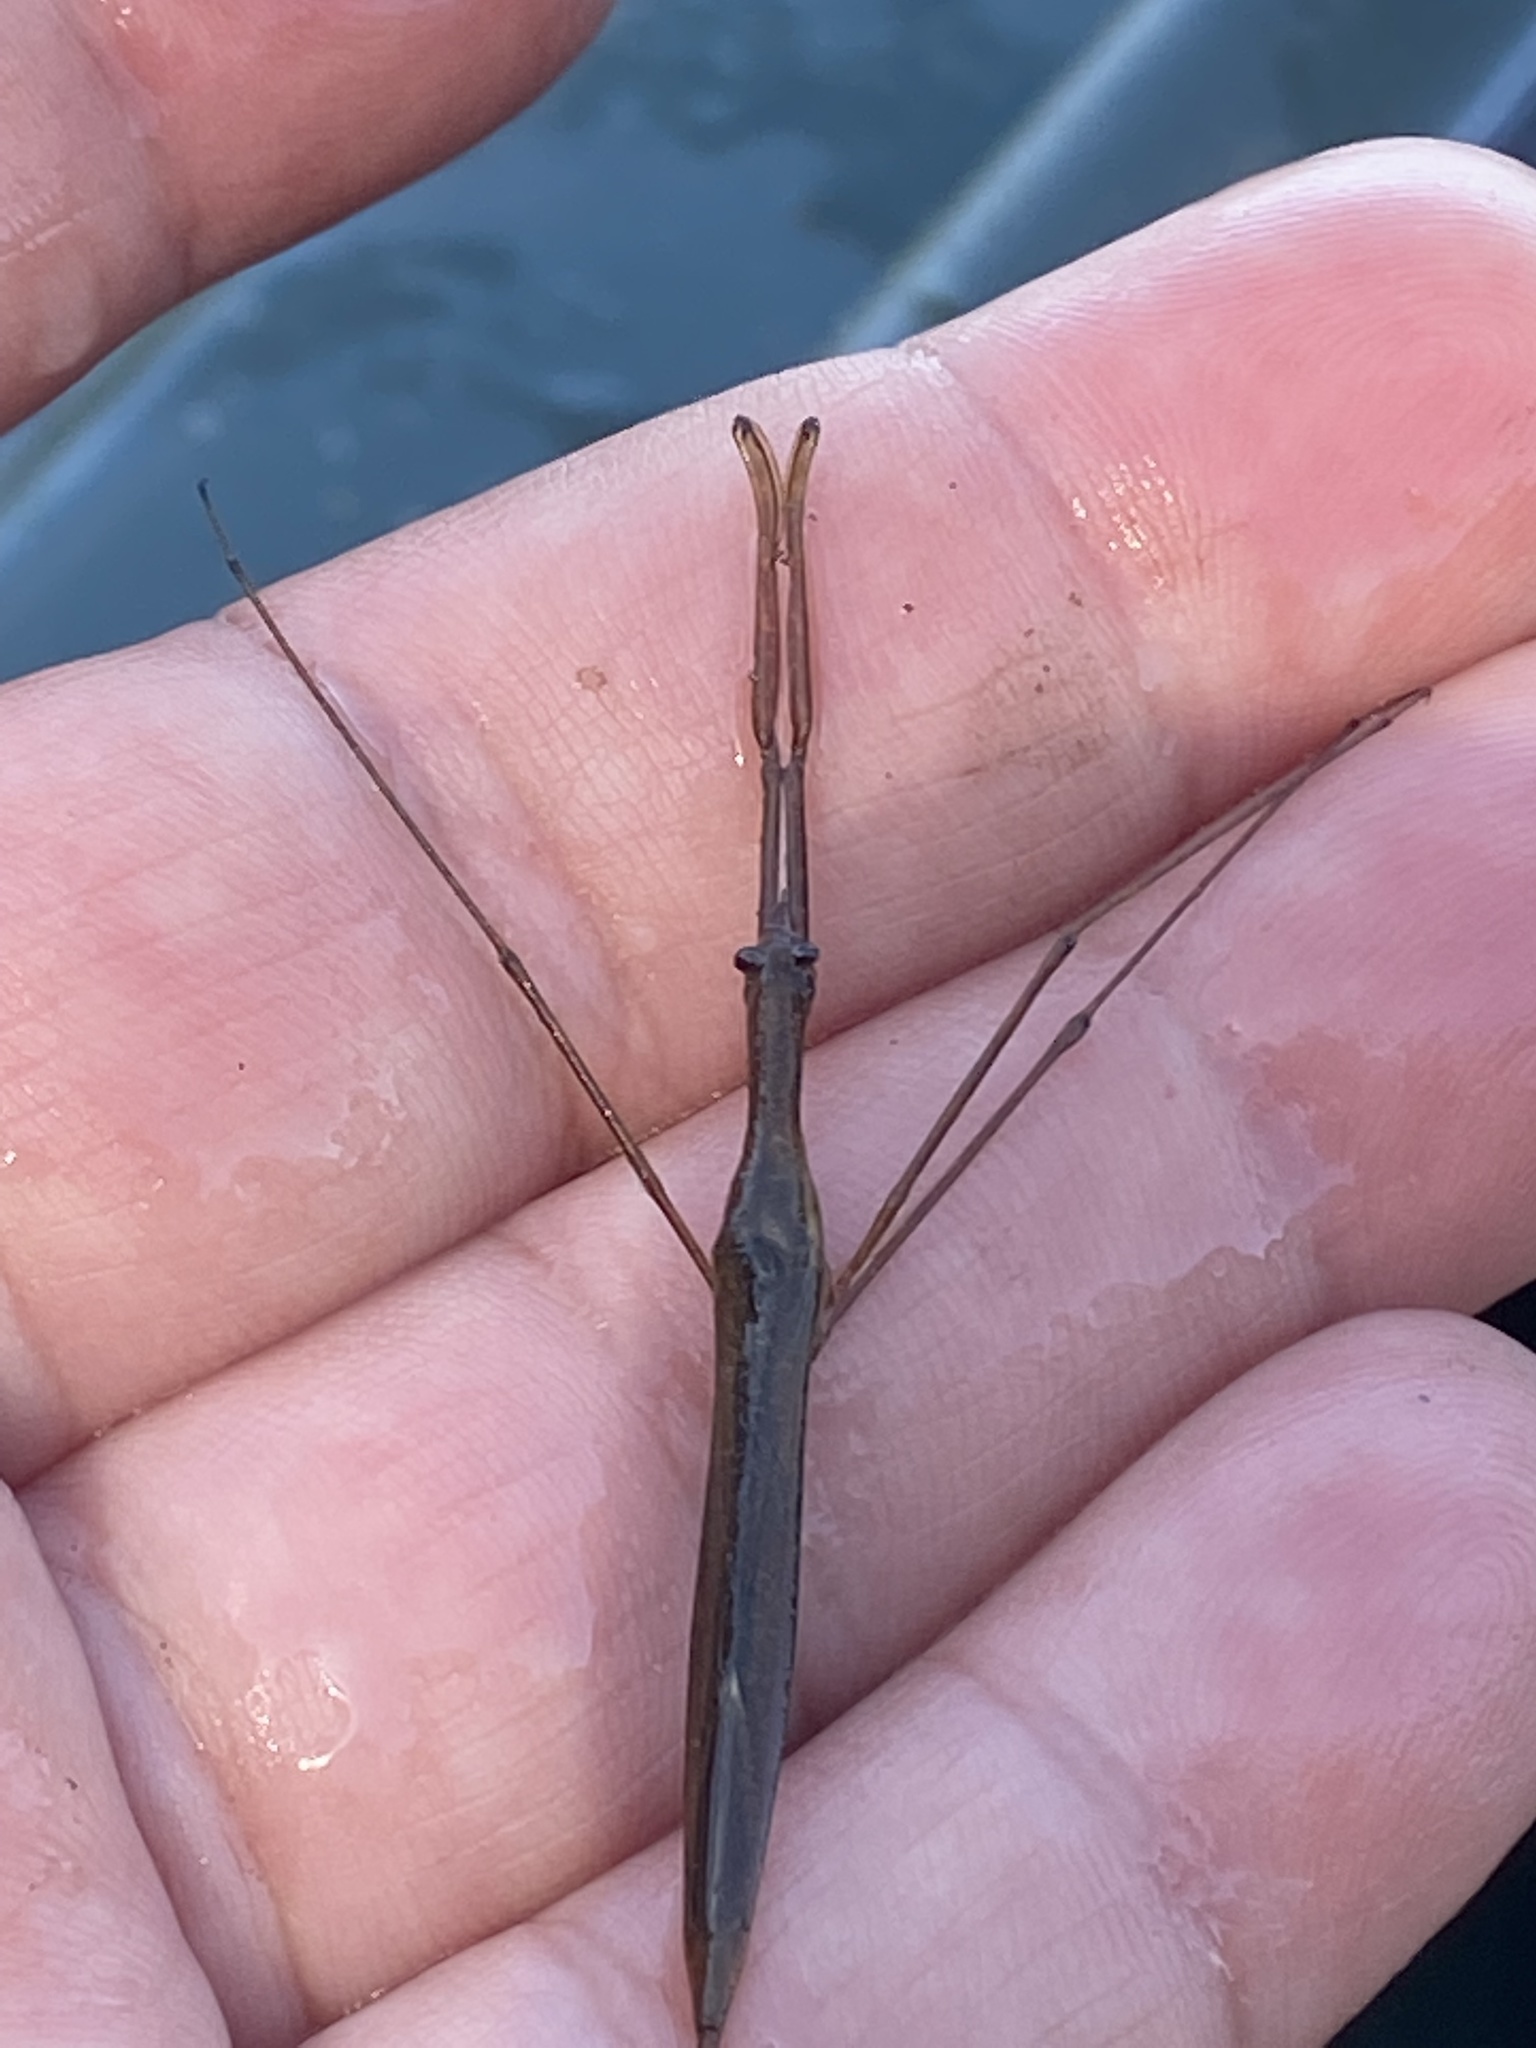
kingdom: Animalia
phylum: Arthropoda
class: Insecta
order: Hemiptera
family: Nepidae
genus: Ranatra
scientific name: Ranatra fusca
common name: Brown waterscorpion
